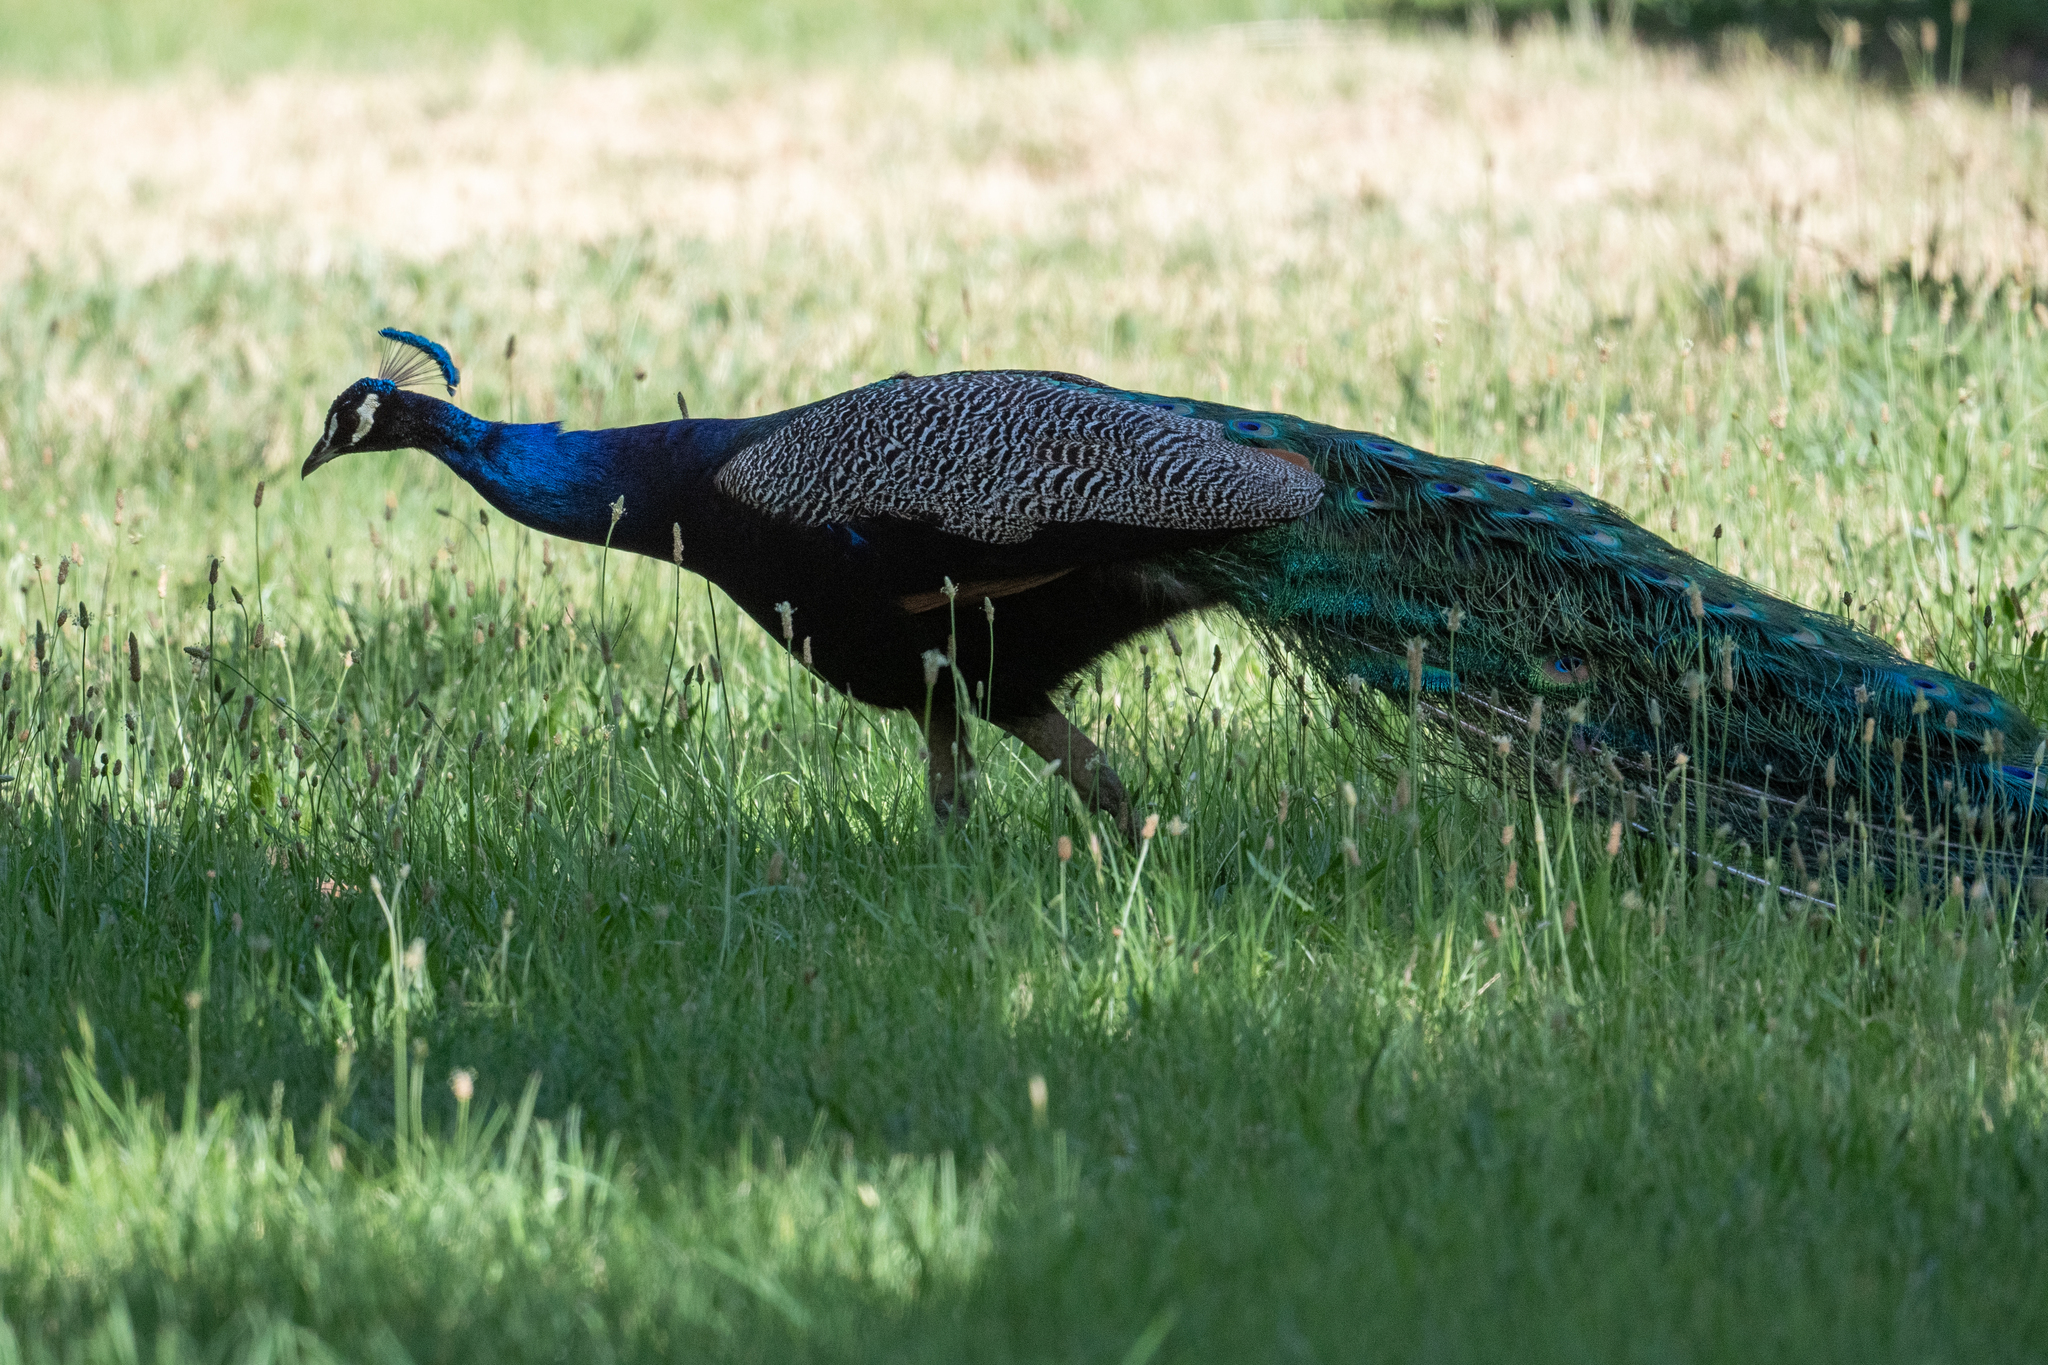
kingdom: Animalia
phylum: Chordata
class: Aves
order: Galliformes
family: Phasianidae
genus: Pavo
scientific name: Pavo cristatus
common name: Indian peafowl
